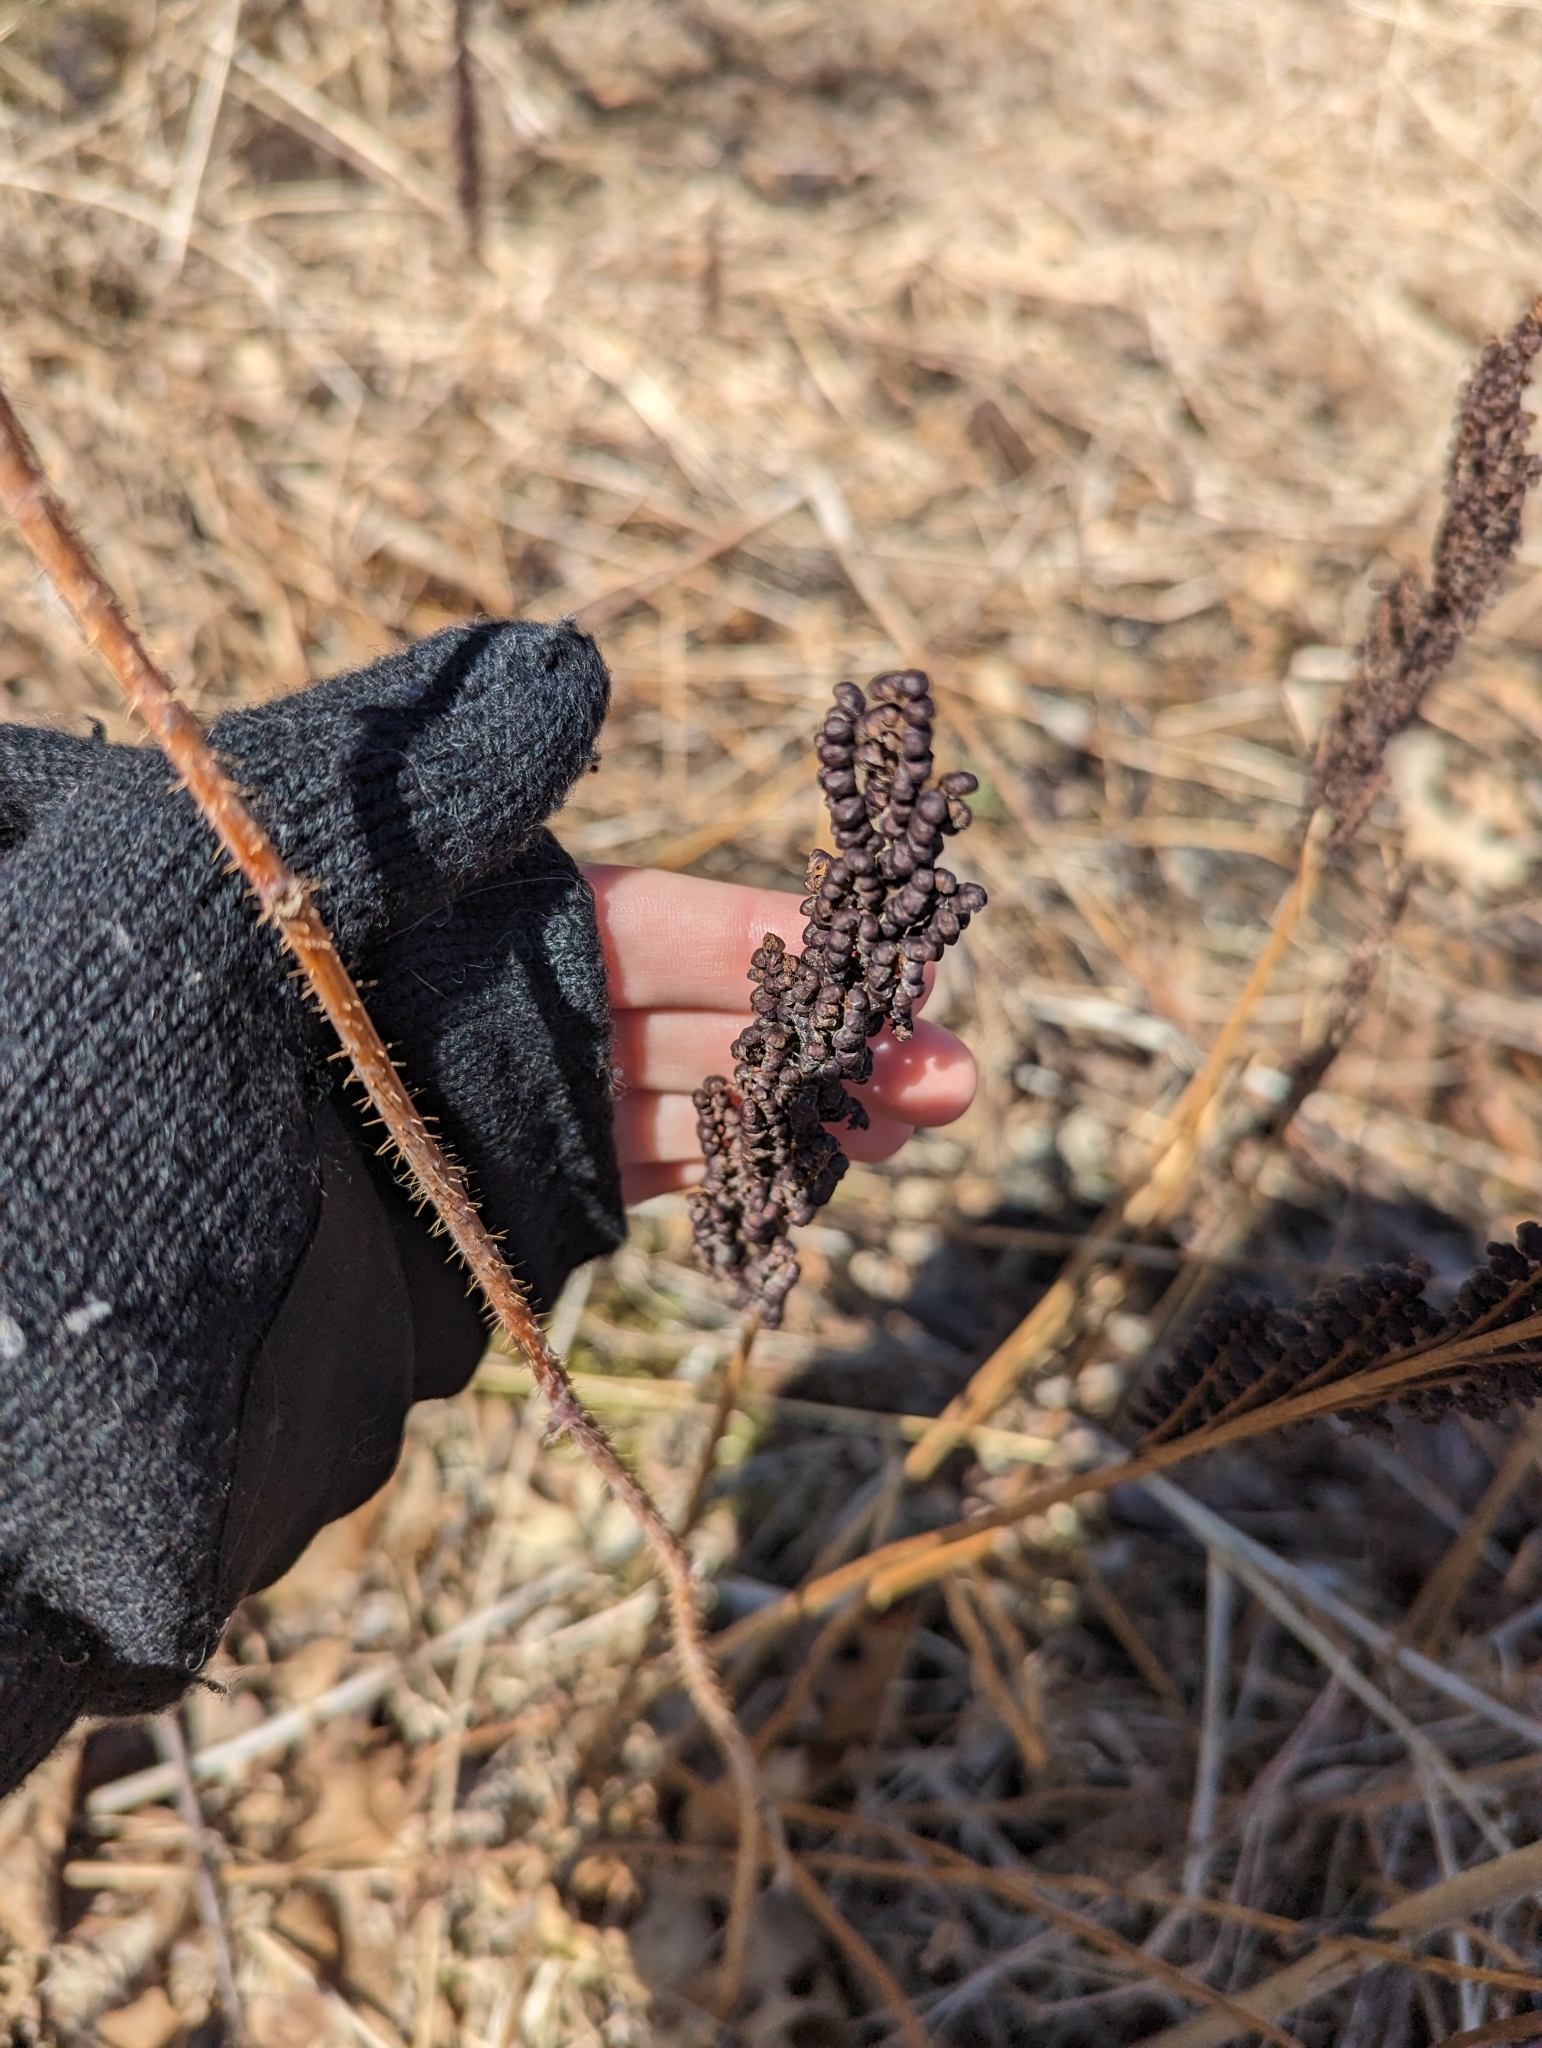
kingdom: Plantae
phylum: Tracheophyta
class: Polypodiopsida
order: Polypodiales
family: Onocleaceae
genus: Onoclea
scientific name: Onoclea sensibilis
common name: Sensitive fern
